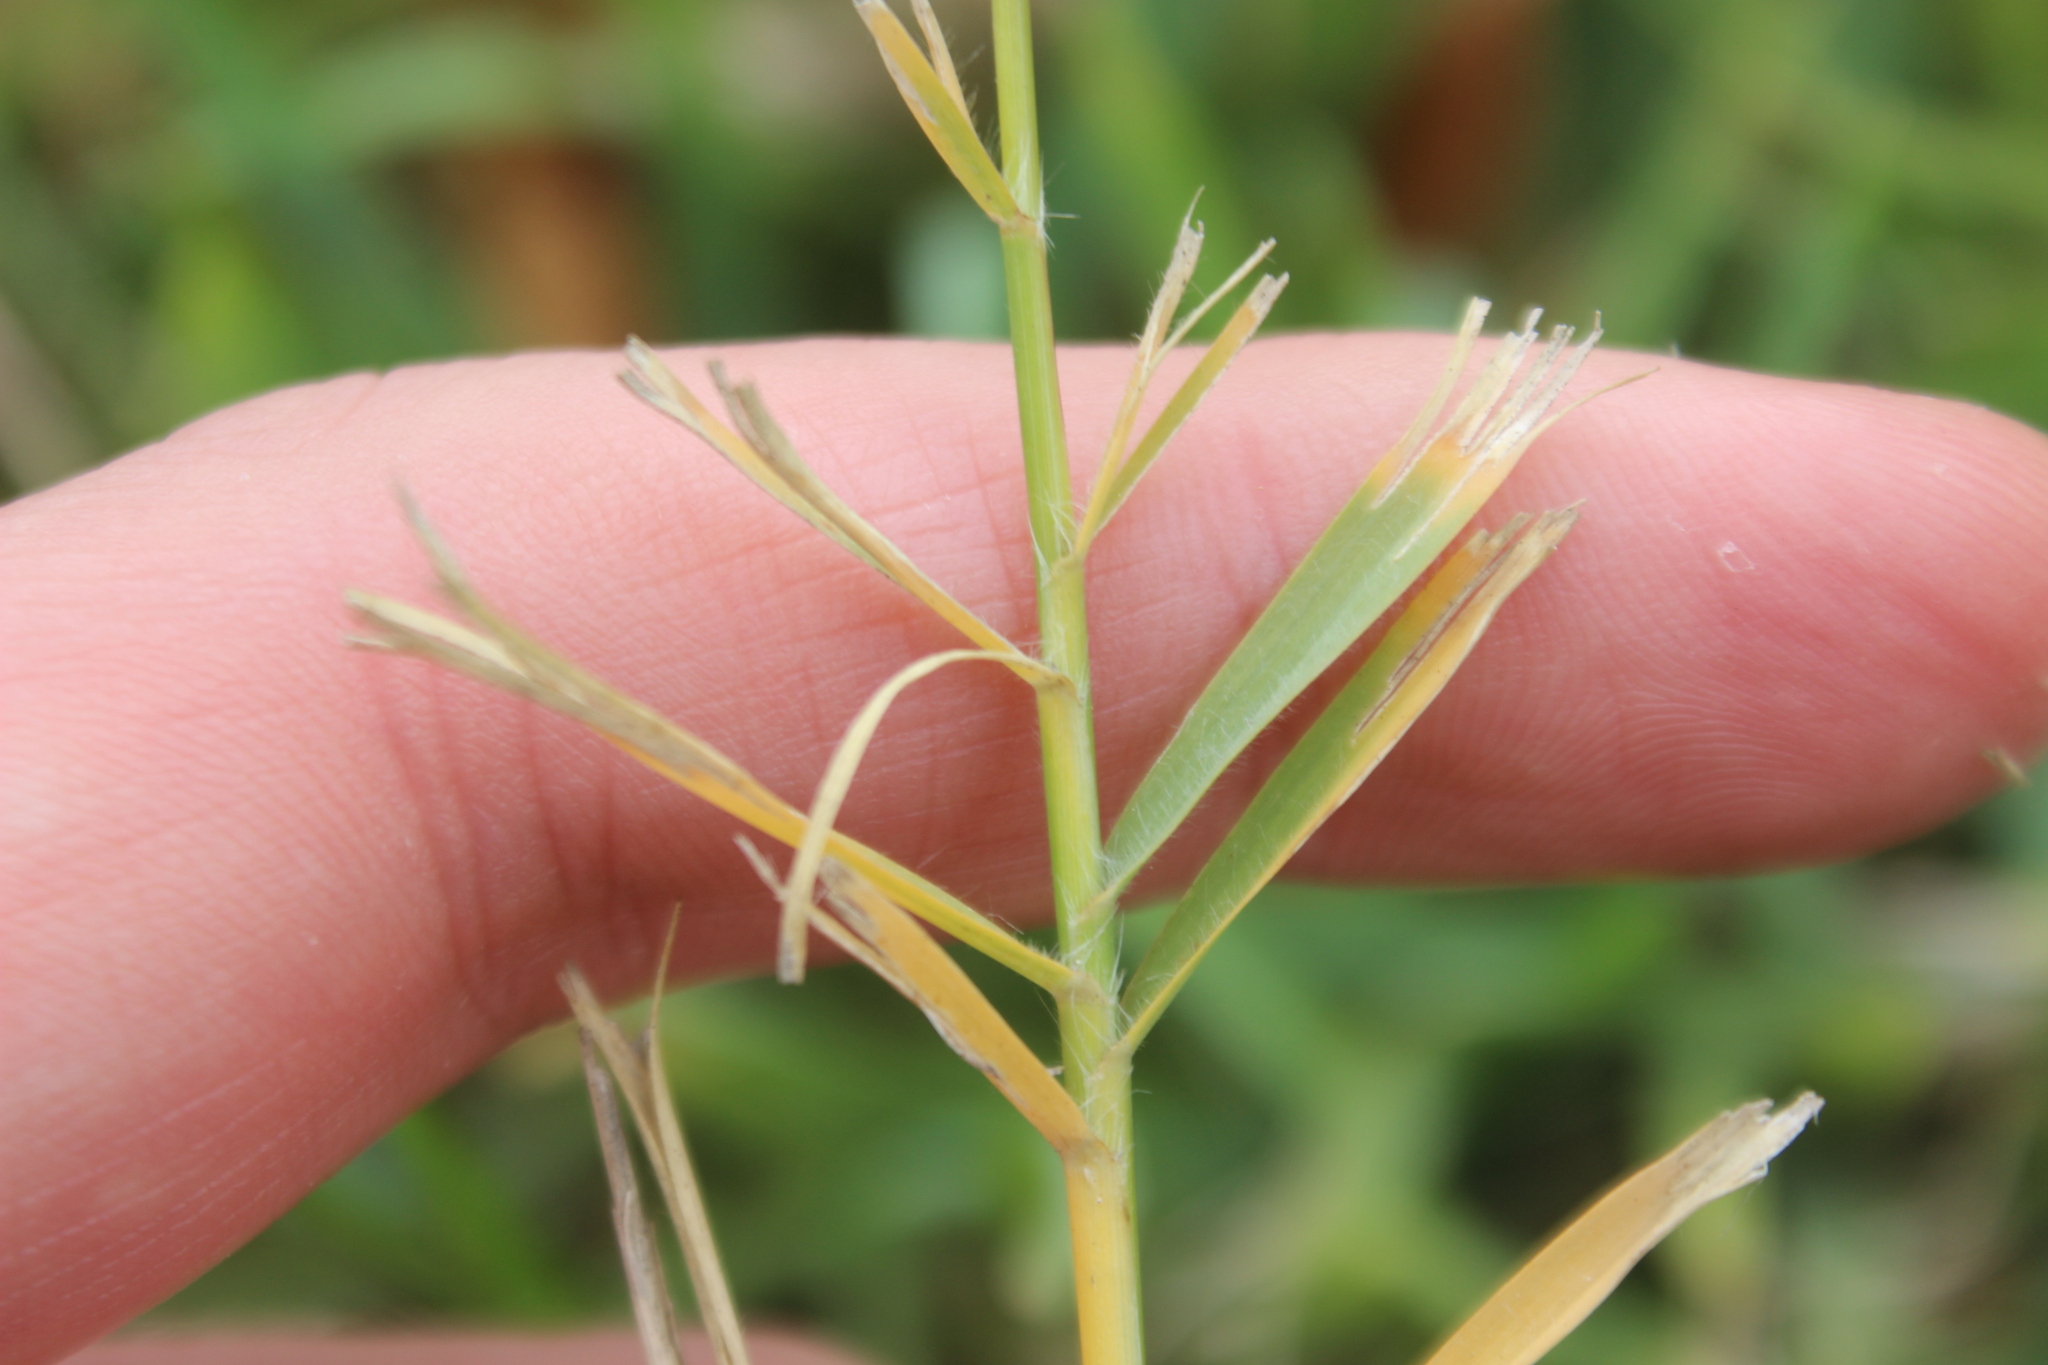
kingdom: Plantae
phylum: Tracheophyta
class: Liliopsida
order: Poales
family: Poaceae
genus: Cynodon
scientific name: Cynodon dactylon
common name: Bermuda grass
